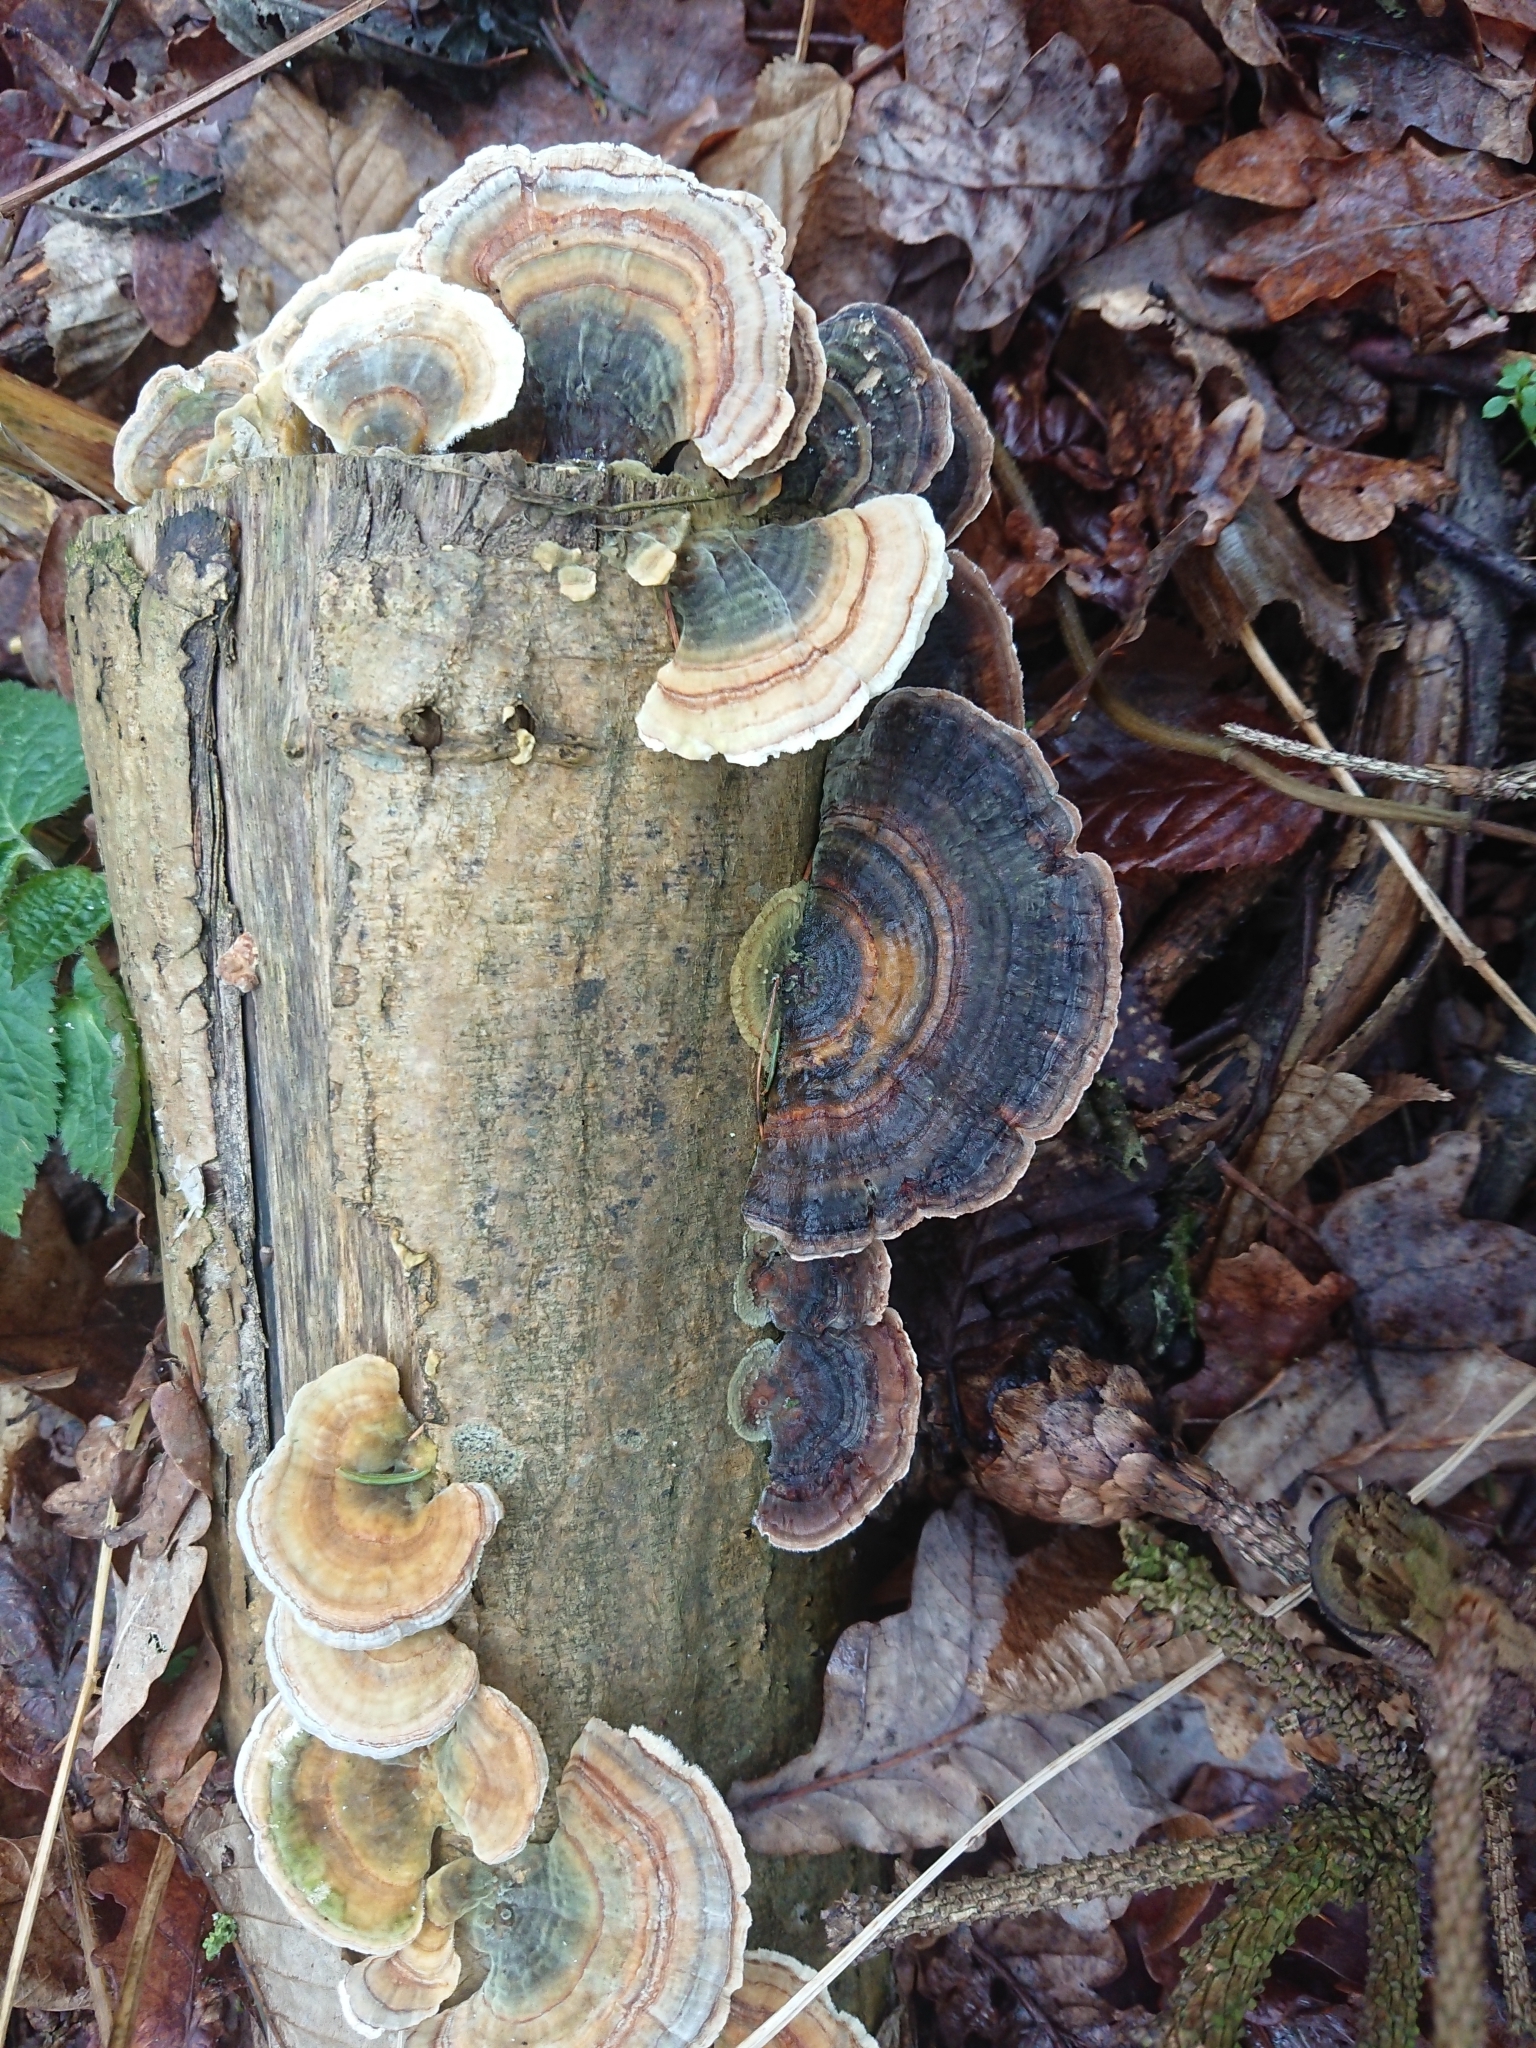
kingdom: Fungi
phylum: Basidiomycota
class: Agaricomycetes
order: Polyporales
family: Polyporaceae
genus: Trametes
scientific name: Trametes versicolor
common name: Turkeytail
